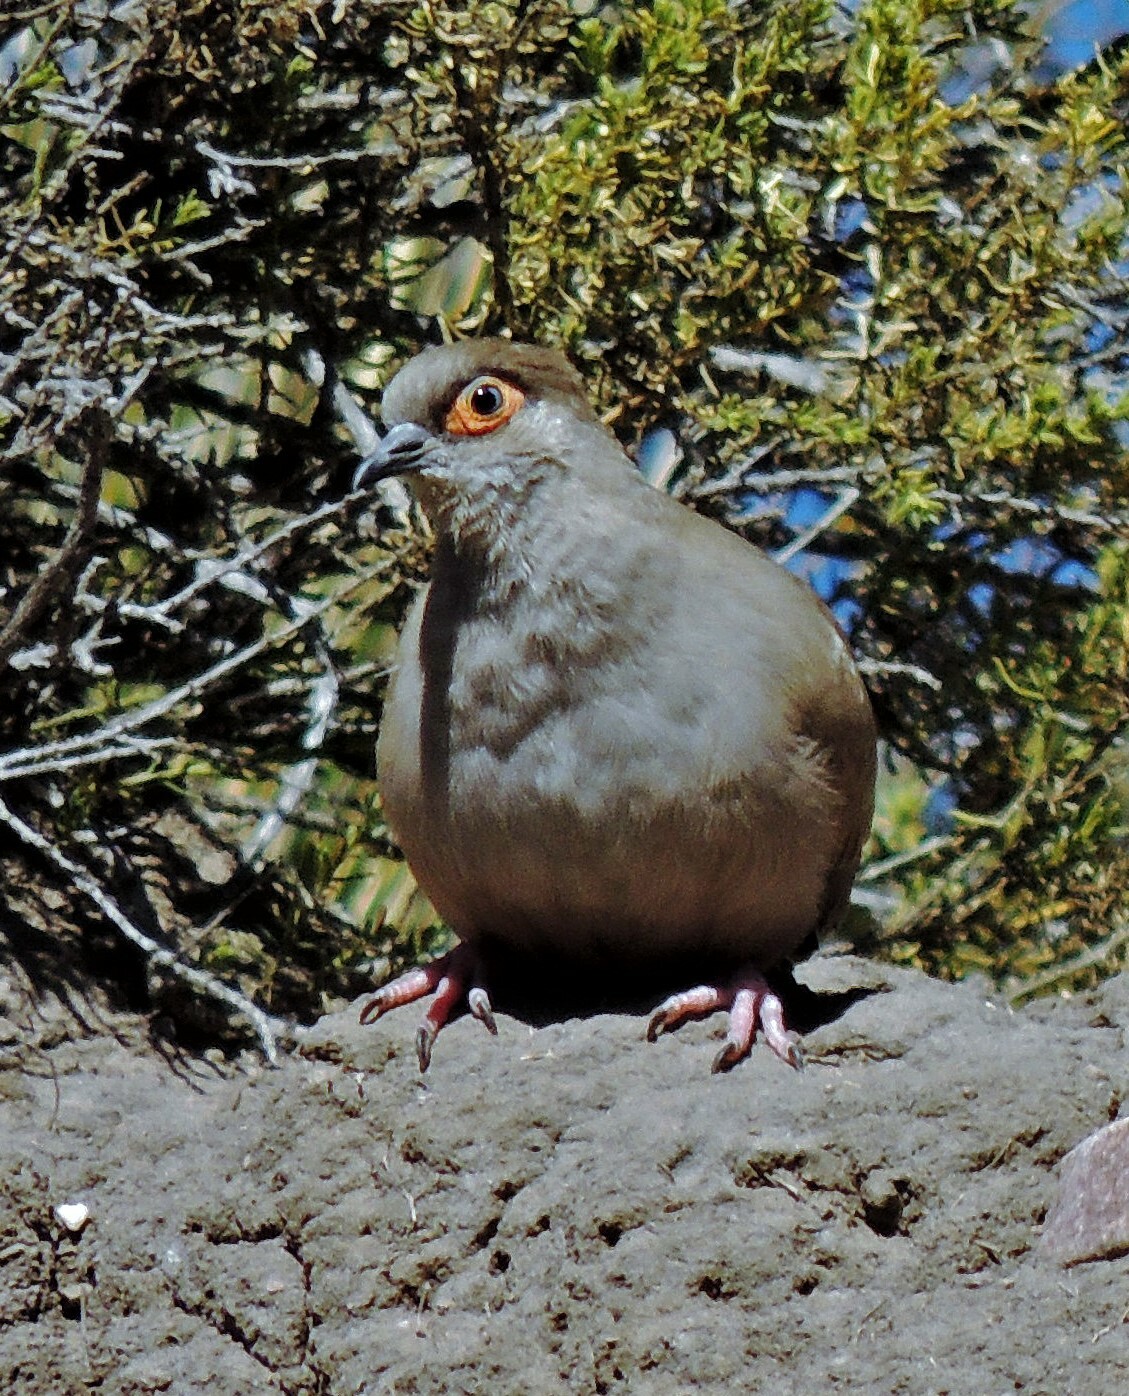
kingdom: Animalia
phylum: Chordata
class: Aves
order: Columbiformes
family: Columbidae
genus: Metriopelia
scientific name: Metriopelia morenoi
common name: Moreno's ground dove
